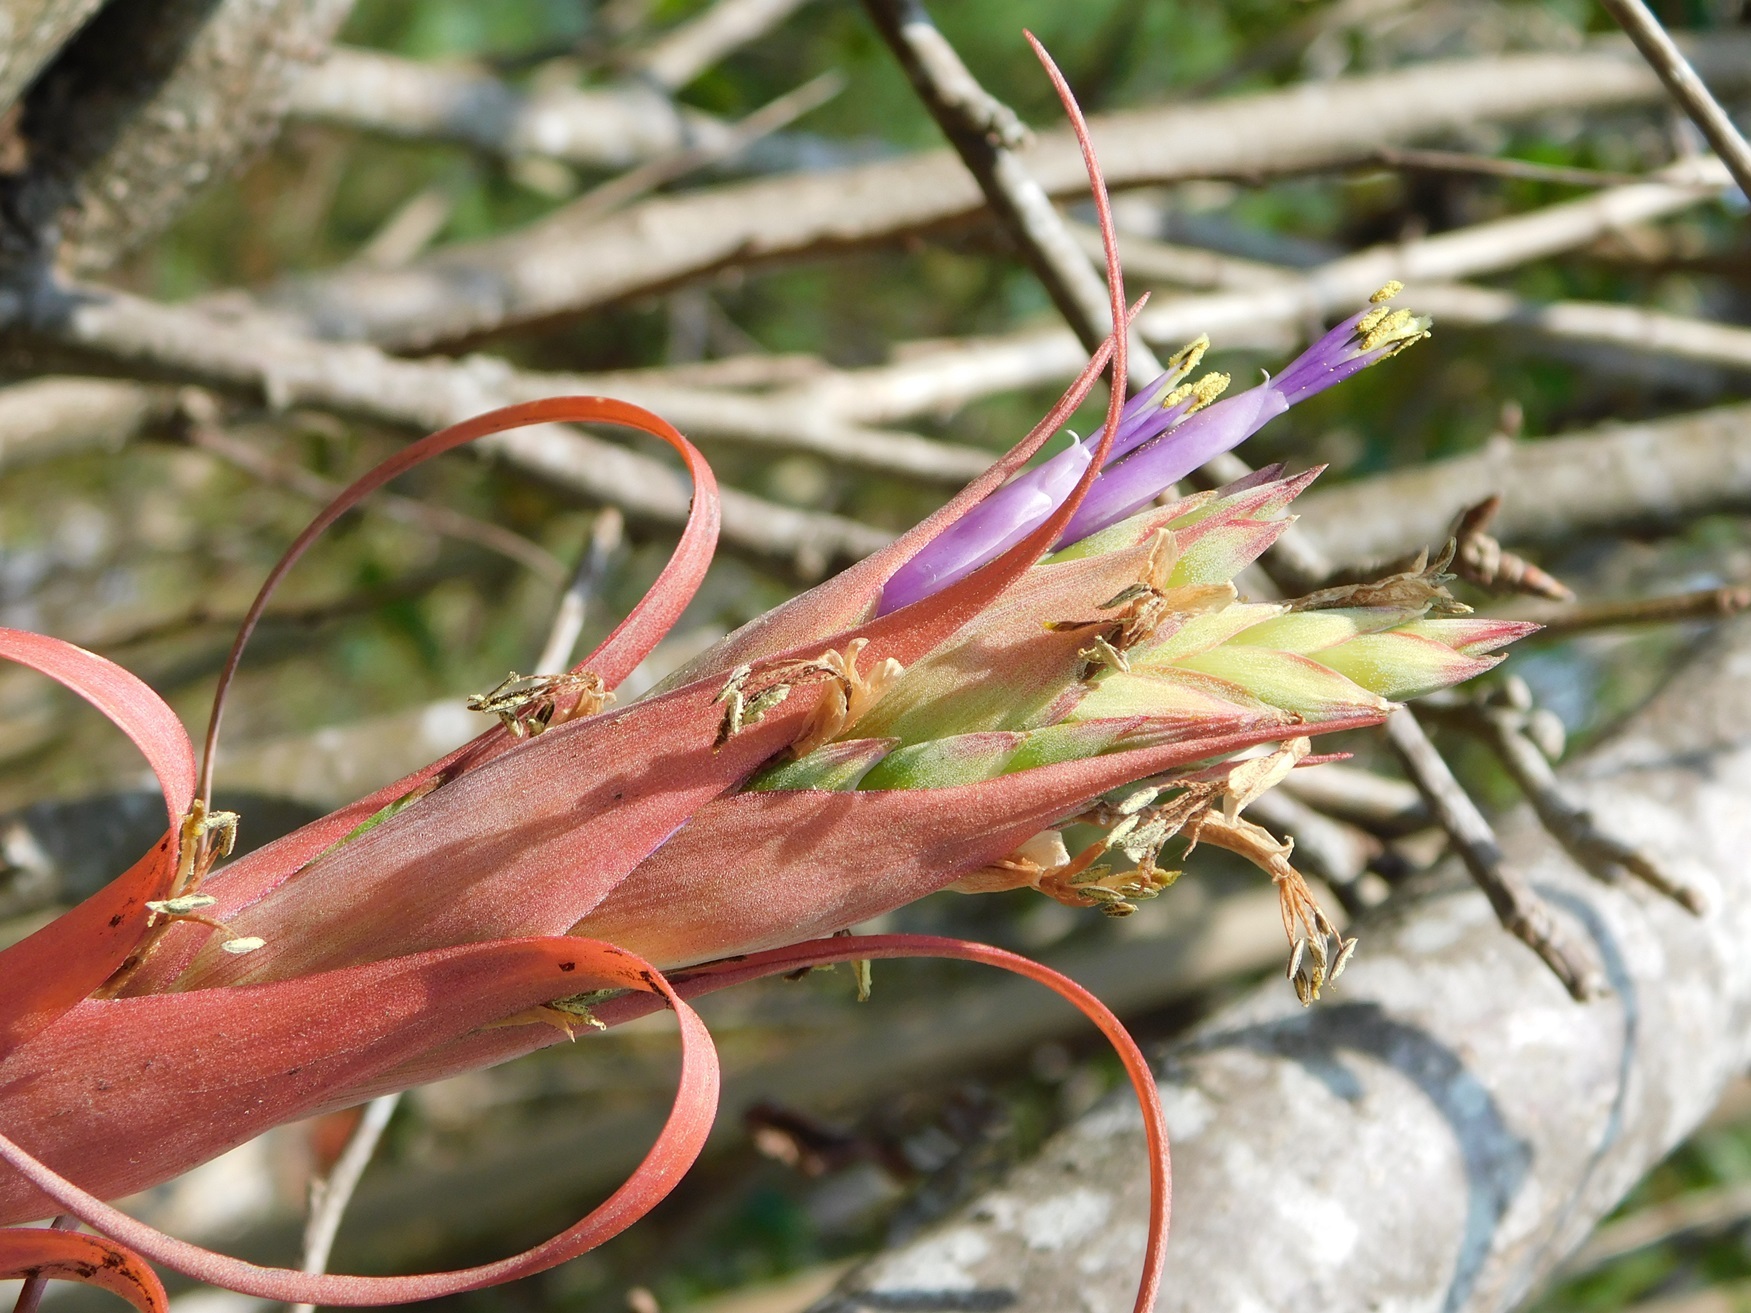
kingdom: Plantae
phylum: Tracheophyta
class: Liliopsida
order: Poales
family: Bromeliaceae
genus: Tillandsia
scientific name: Tillandsia belloensis
